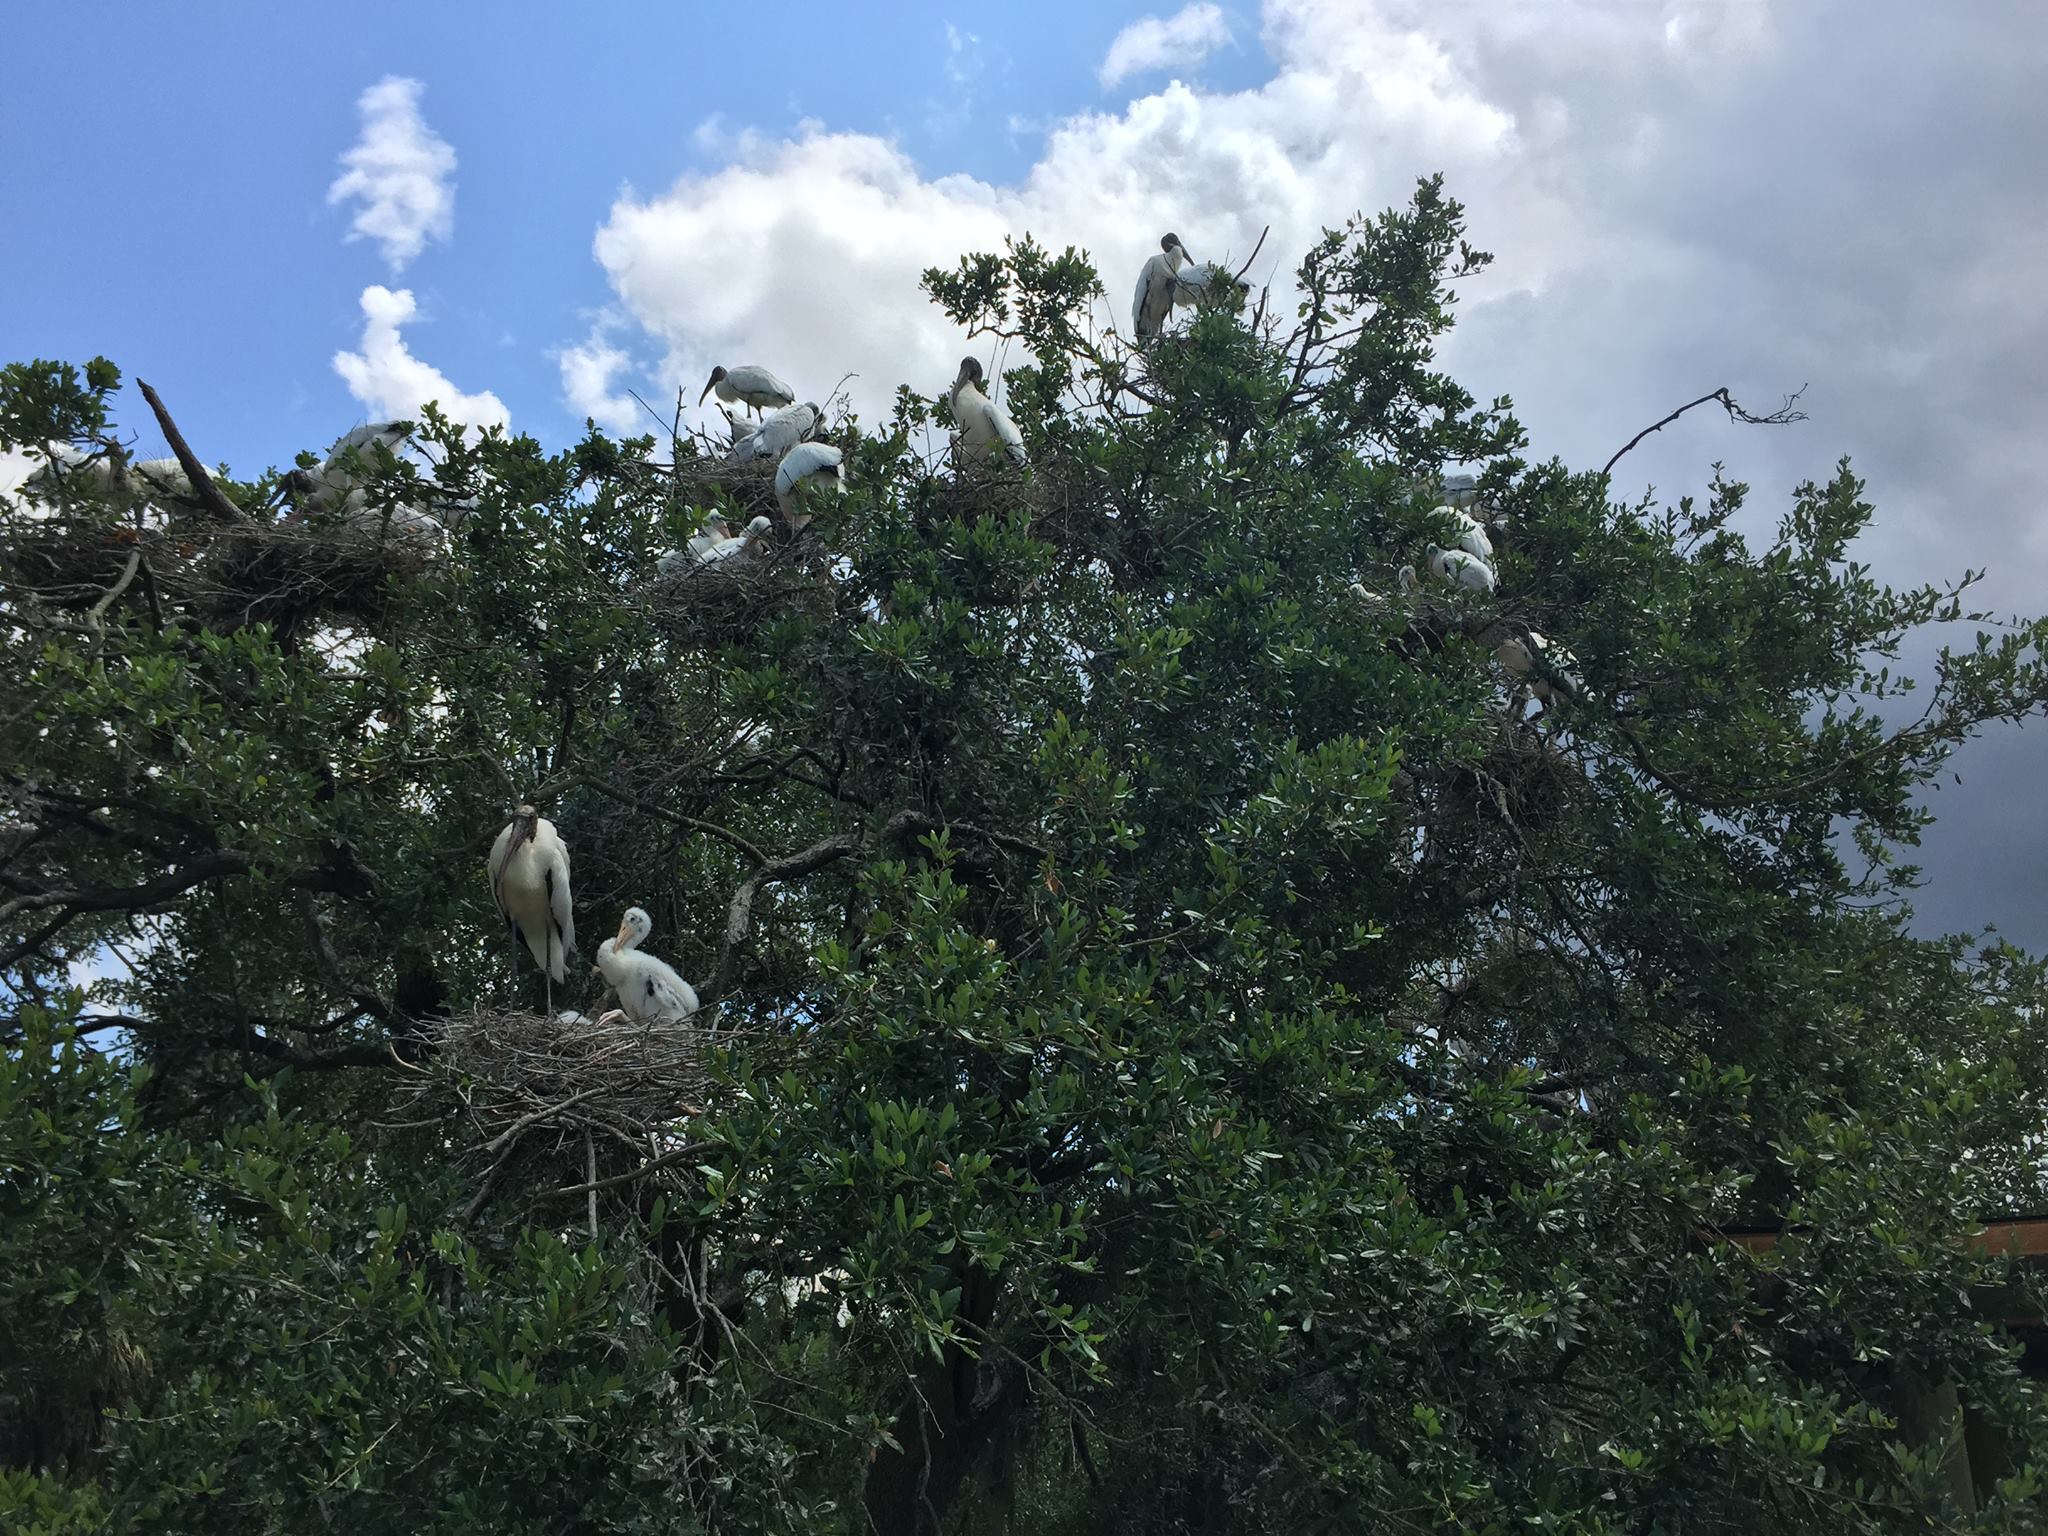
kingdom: Animalia
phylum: Chordata
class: Aves
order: Ciconiiformes
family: Ciconiidae
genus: Mycteria
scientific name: Mycteria americana
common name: Wood stork
